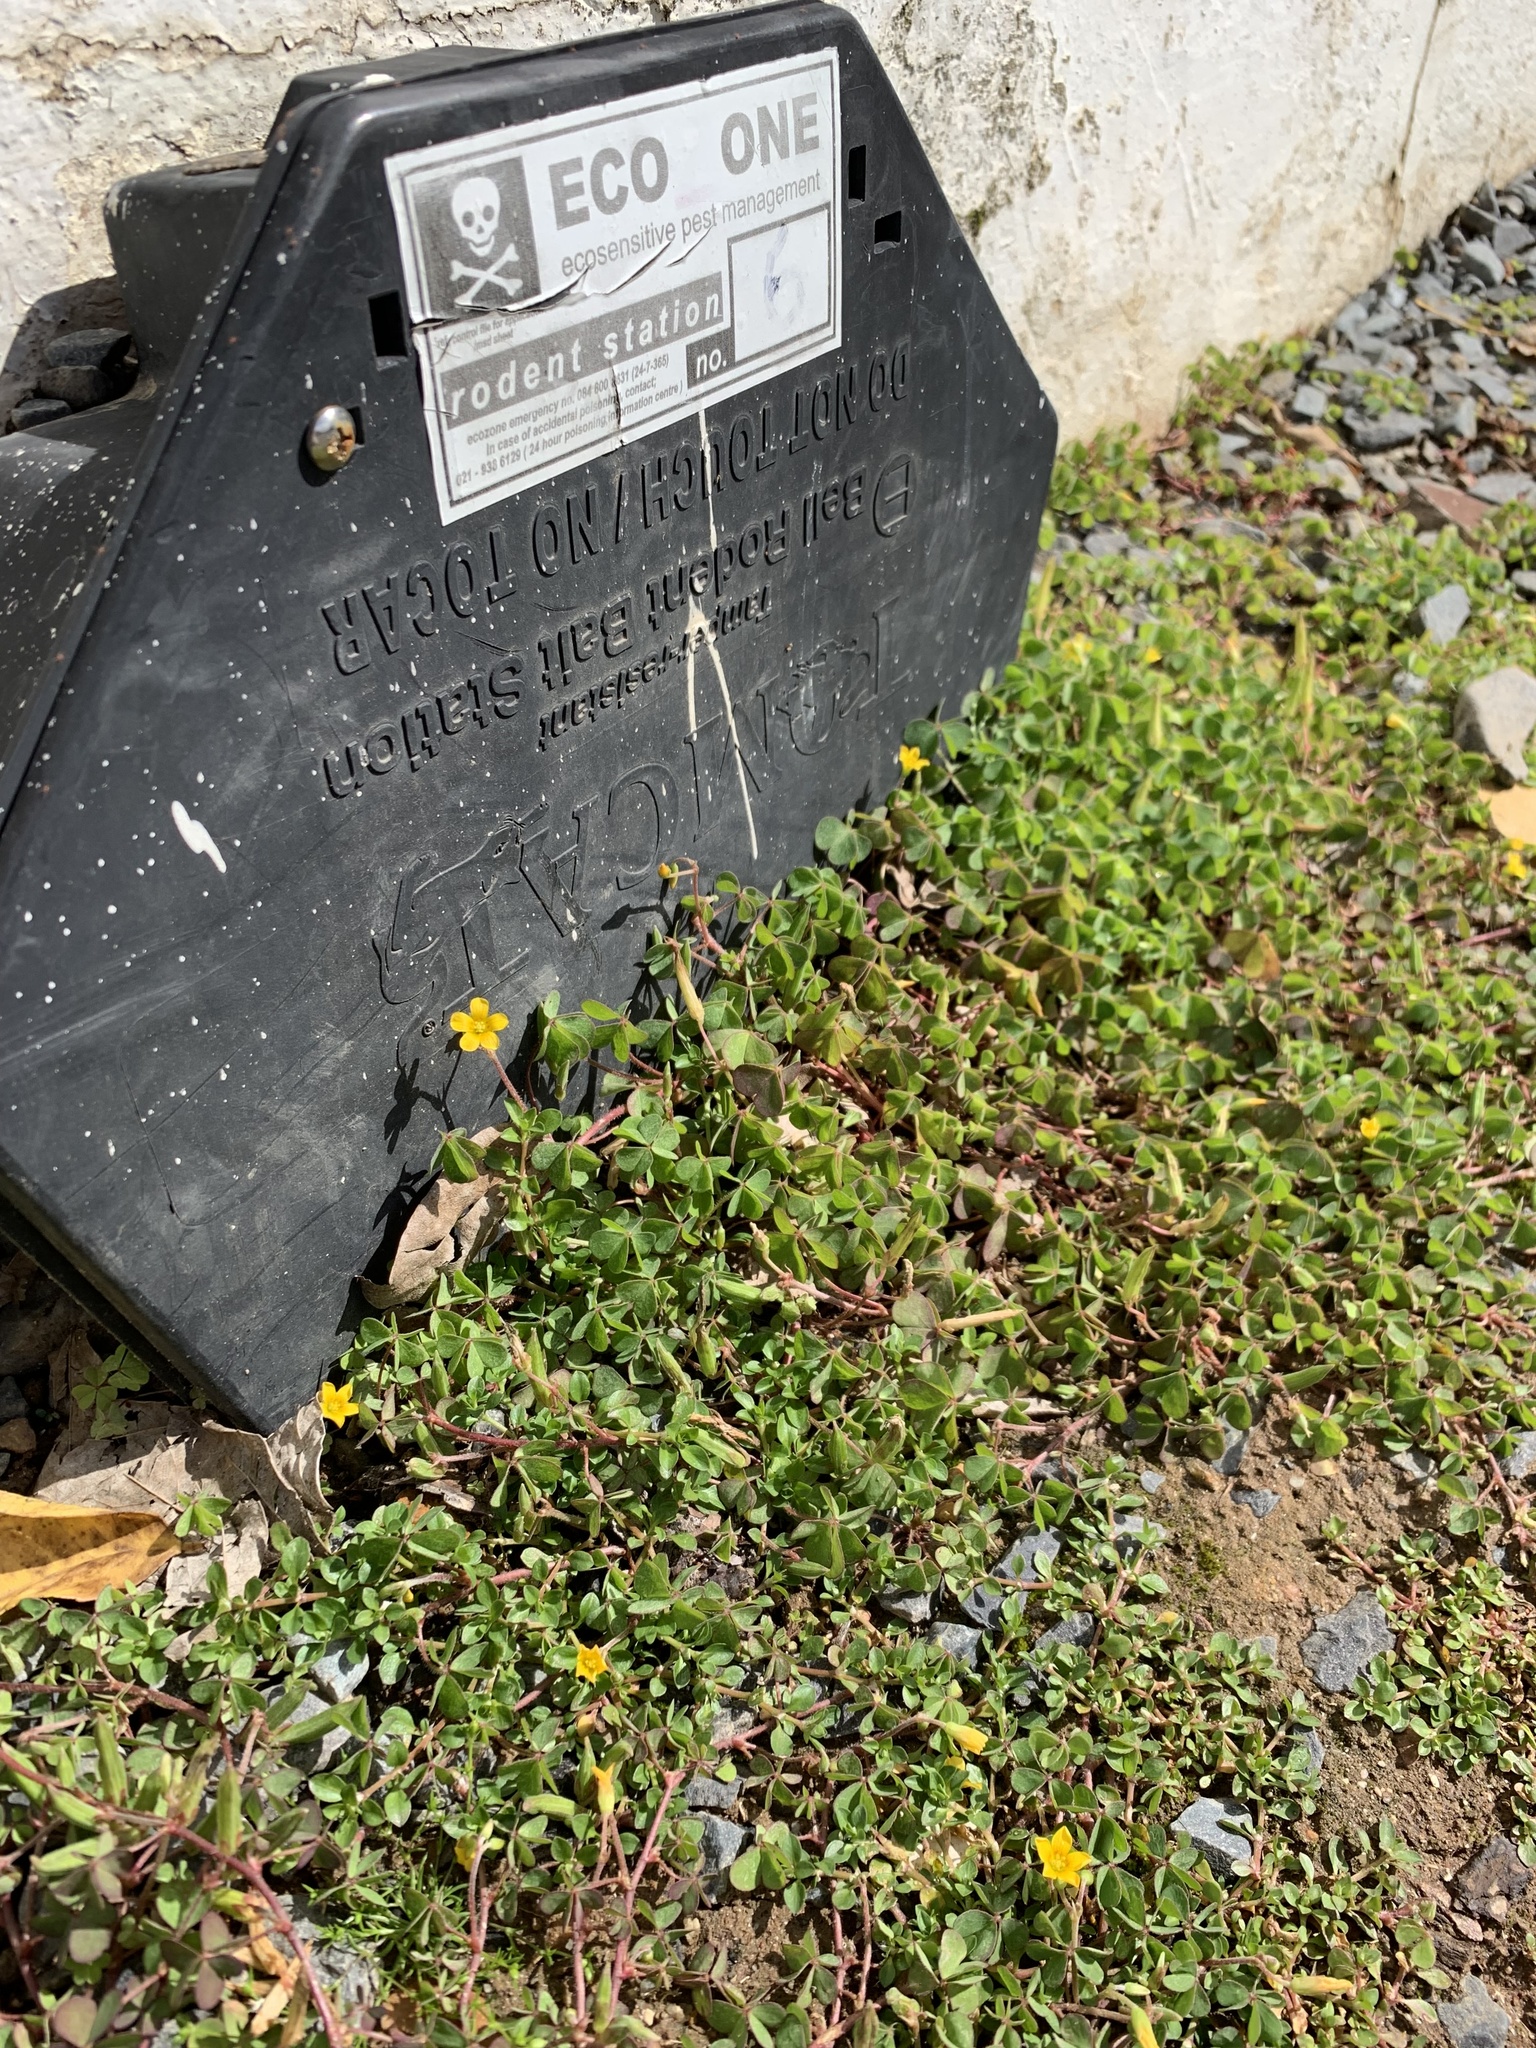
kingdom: Plantae
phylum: Tracheophyta
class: Magnoliopsida
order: Oxalidales
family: Oxalidaceae
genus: Oxalis
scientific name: Oxalis corniculata
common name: Procumbent yellow-sorrel
